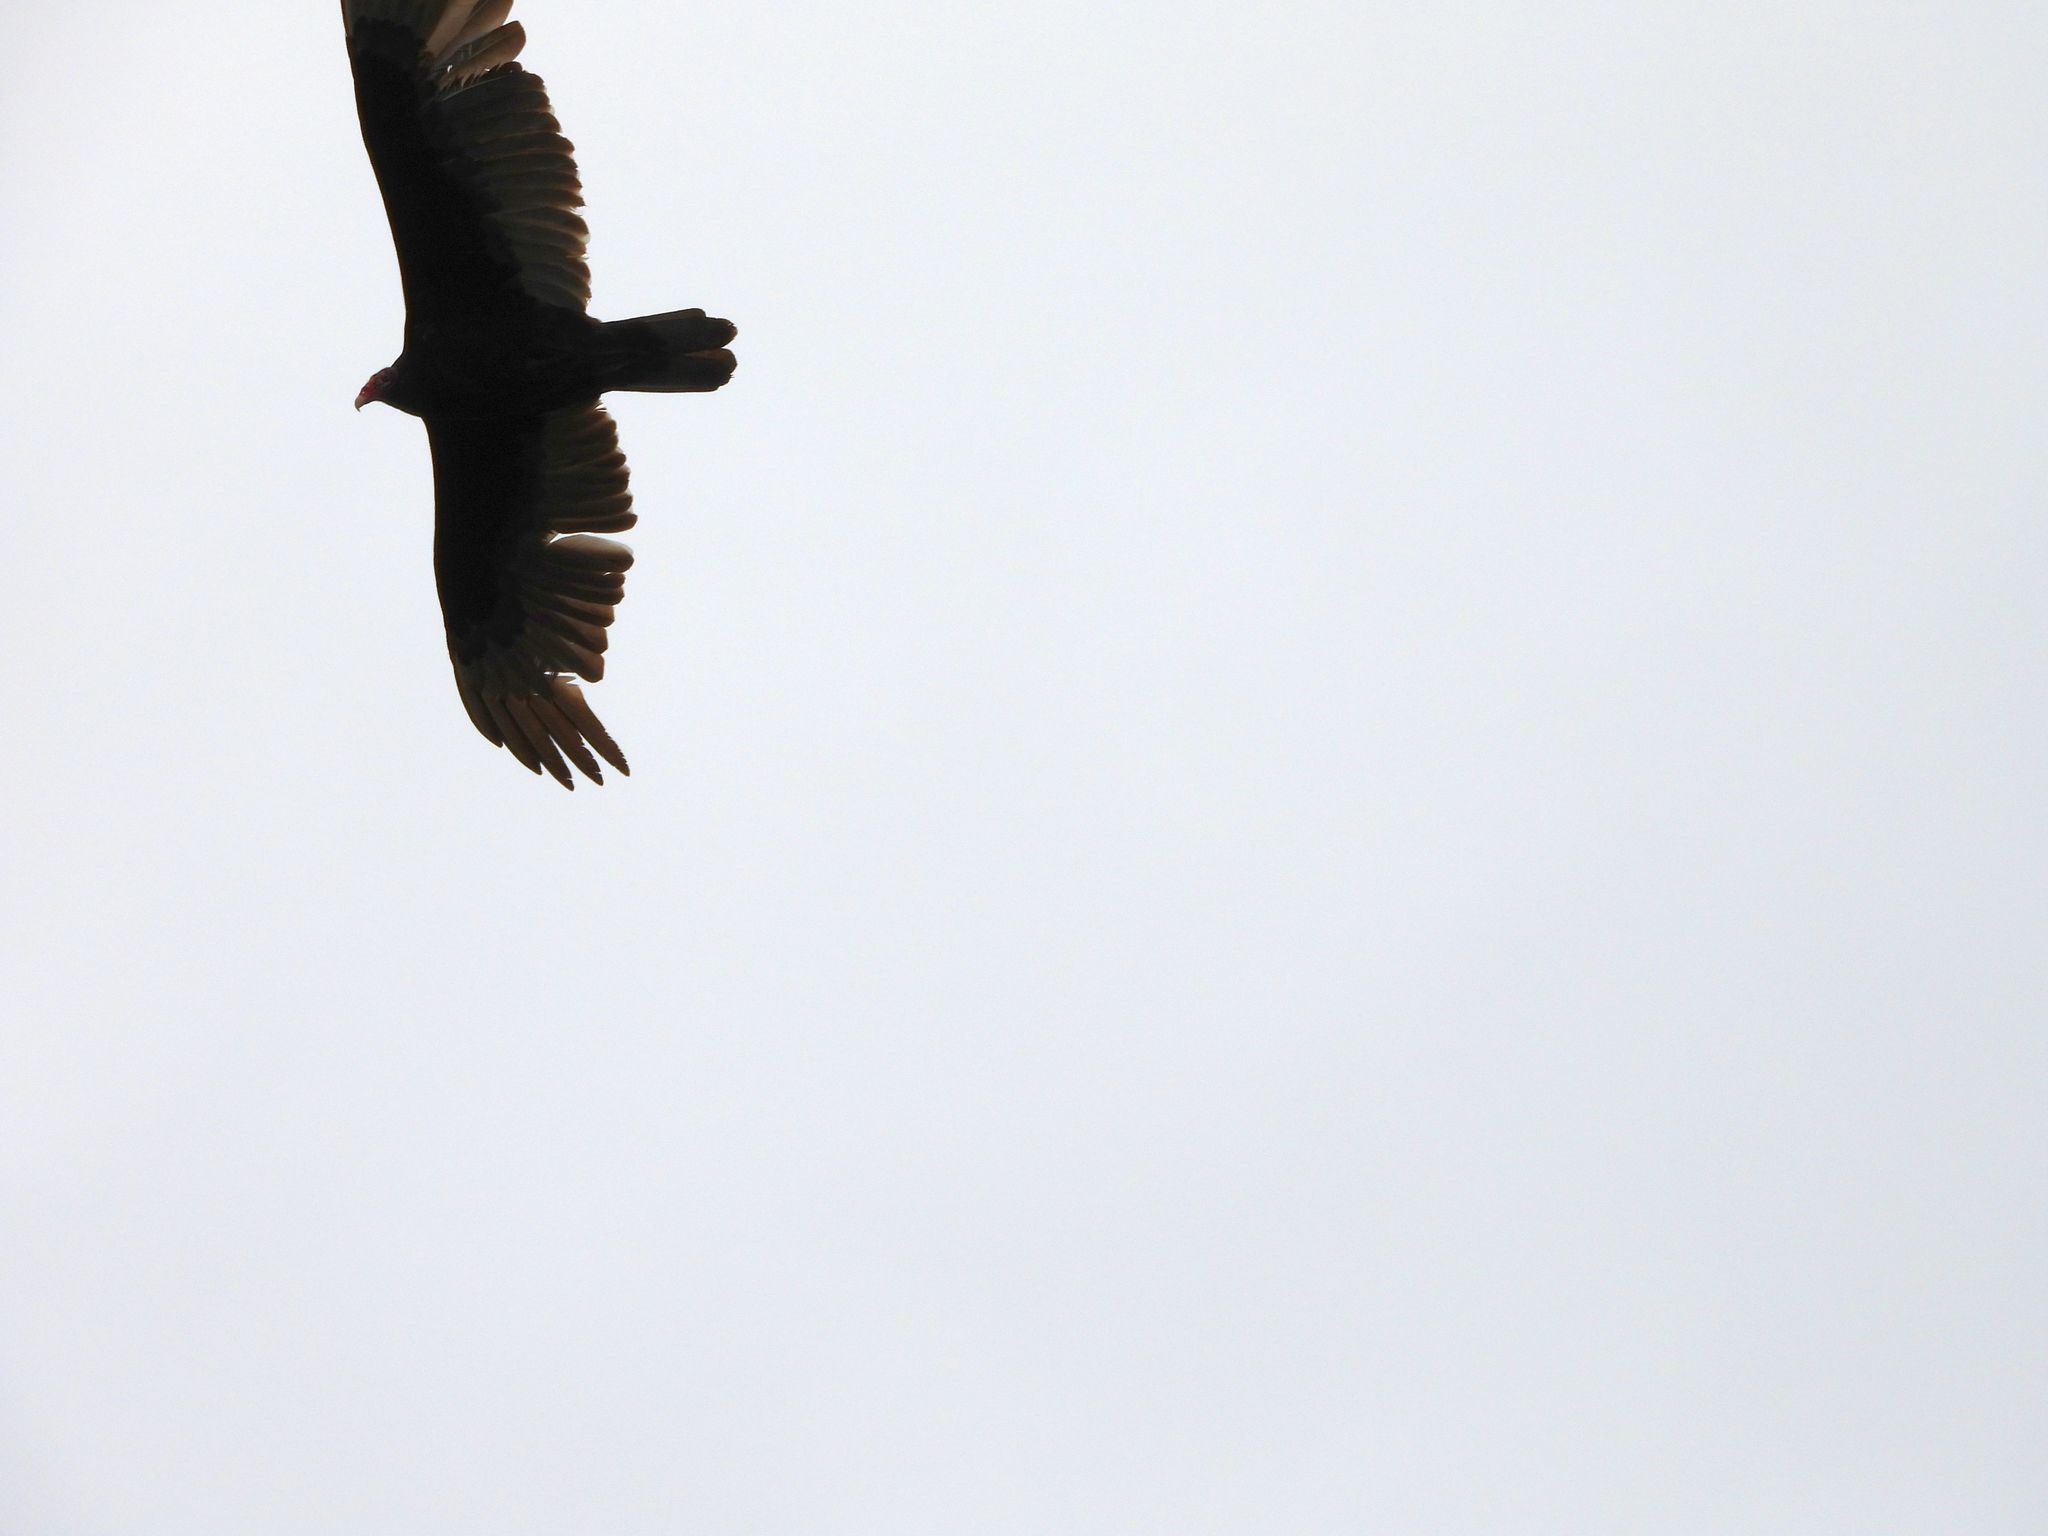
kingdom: Animalia
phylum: Chordata
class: Aves
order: Accipitriformes
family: Cathartidae
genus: Cathartes
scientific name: Cathartes aura
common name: Turkey vulture
